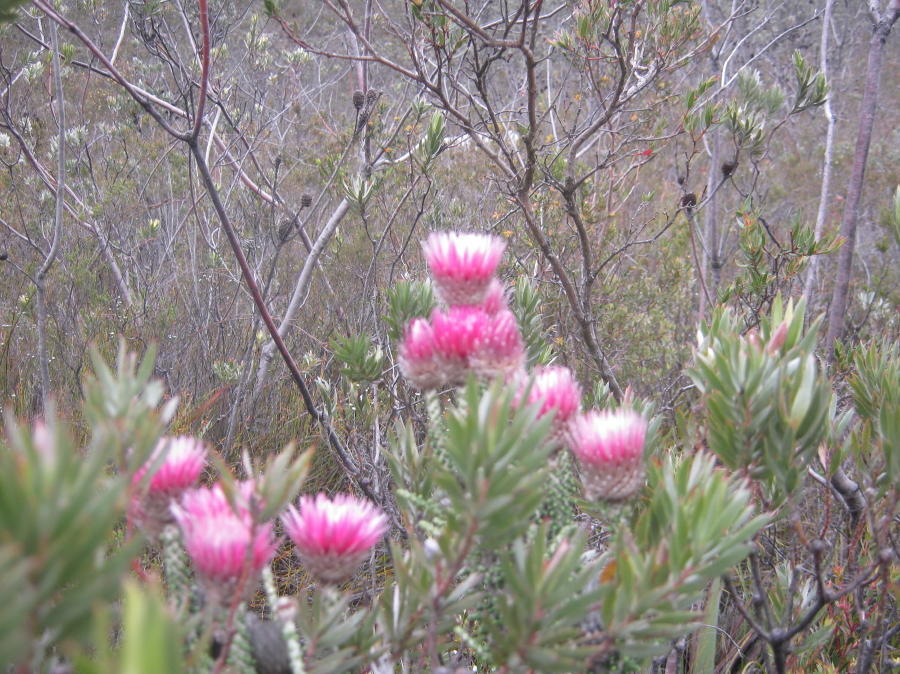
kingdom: Plantae
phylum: Tracheophyta
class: Magnoliopsida
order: Asterales
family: Asteraceae
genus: Phaenocoma
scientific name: Phaenocoma prolifera
